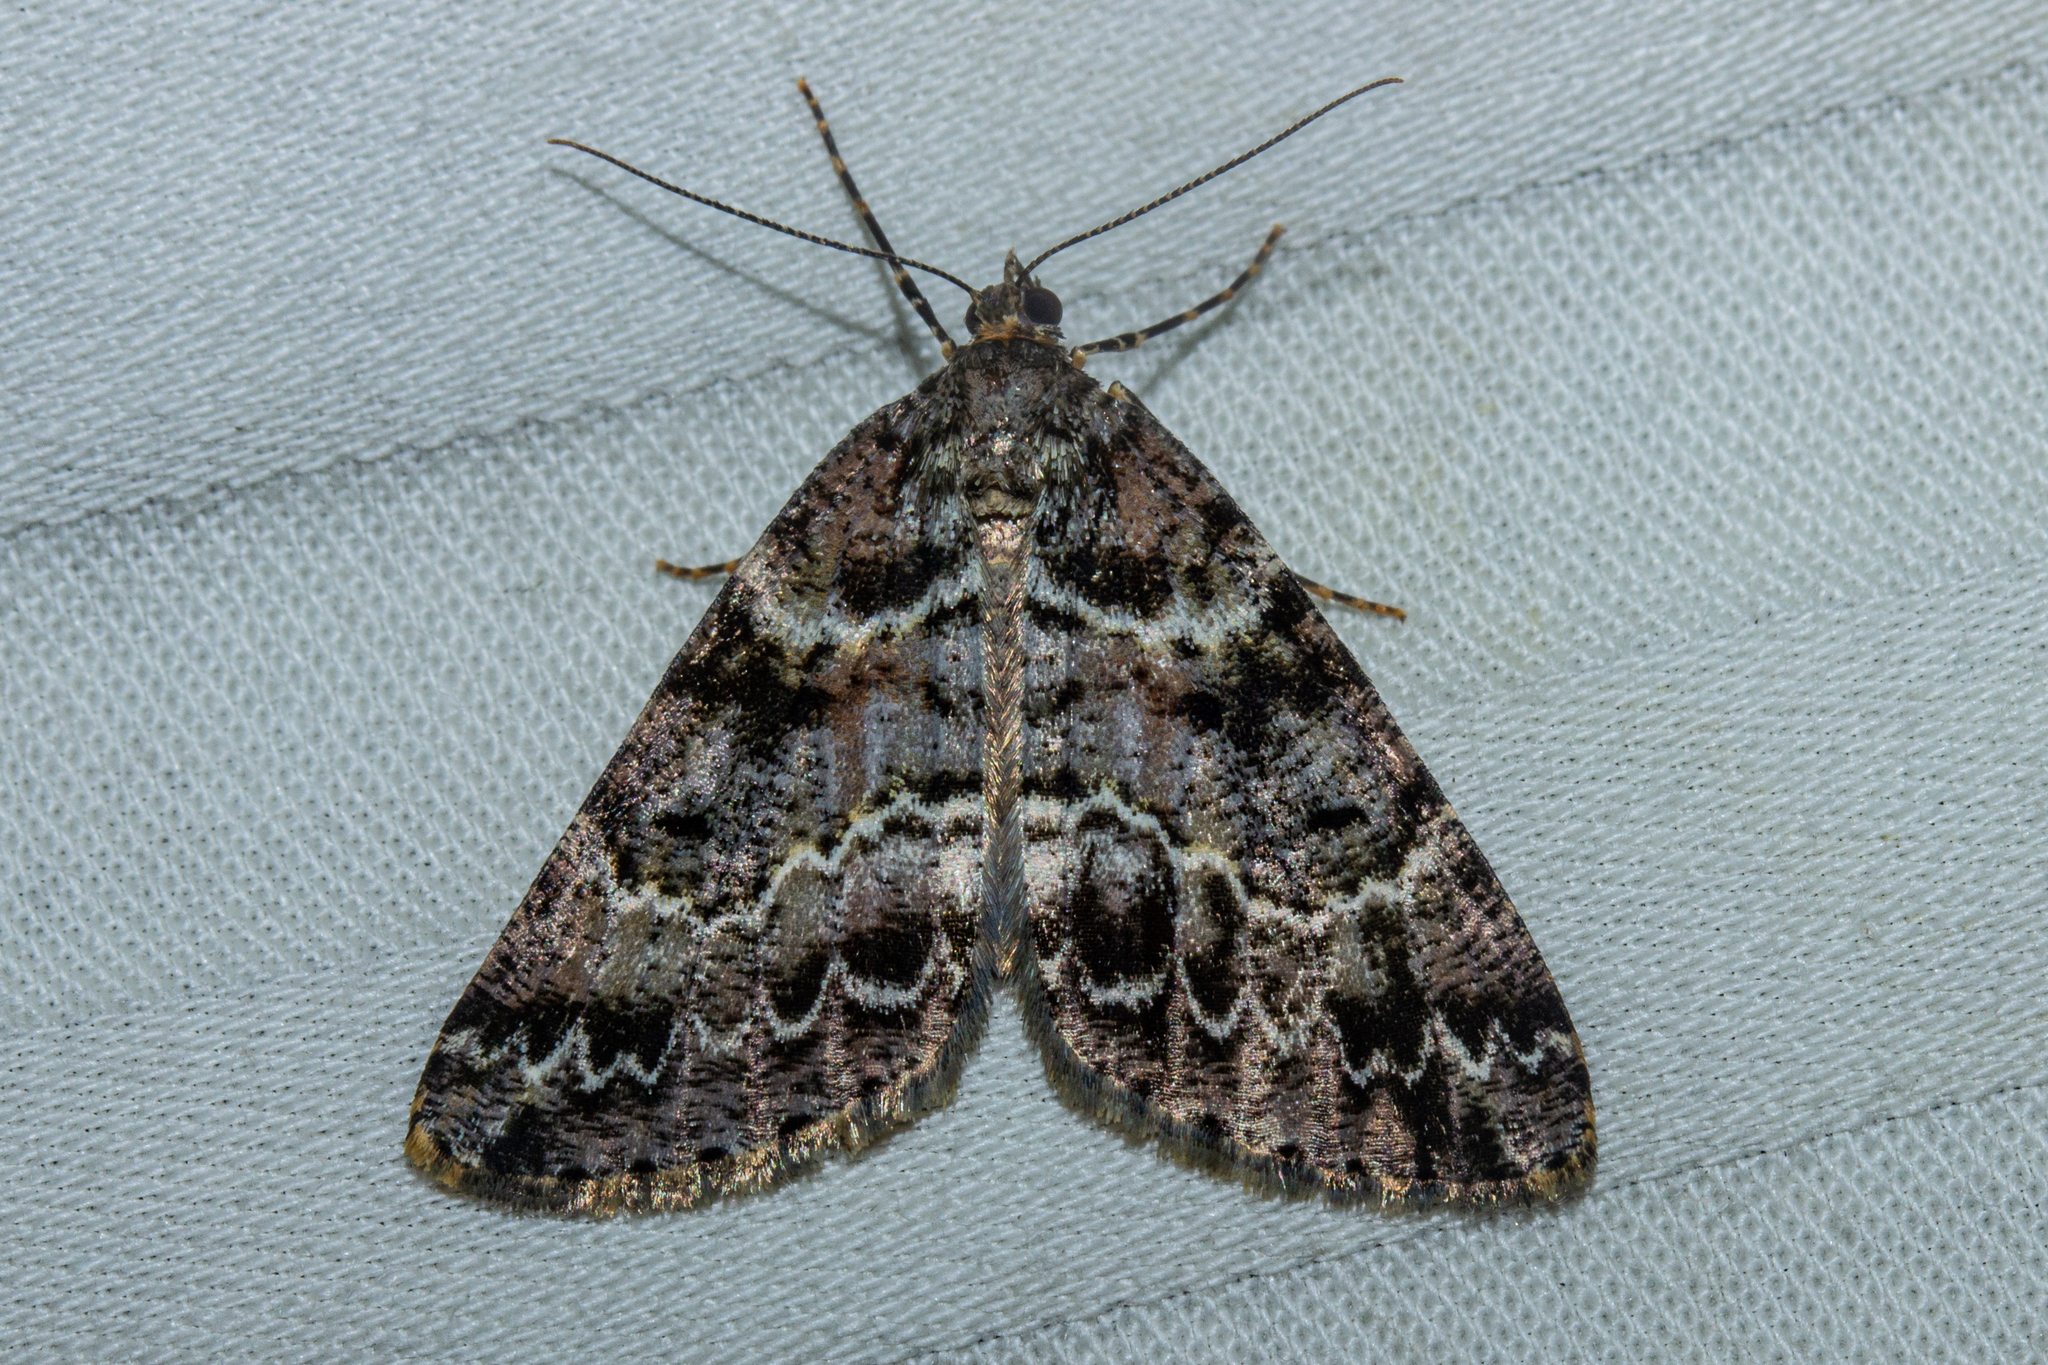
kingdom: Animalia
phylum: Arthropoda
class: Insecta
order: Lepidoptera
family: Geometridae
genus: Pseudocoremia
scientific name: Pseudocoremia productata
